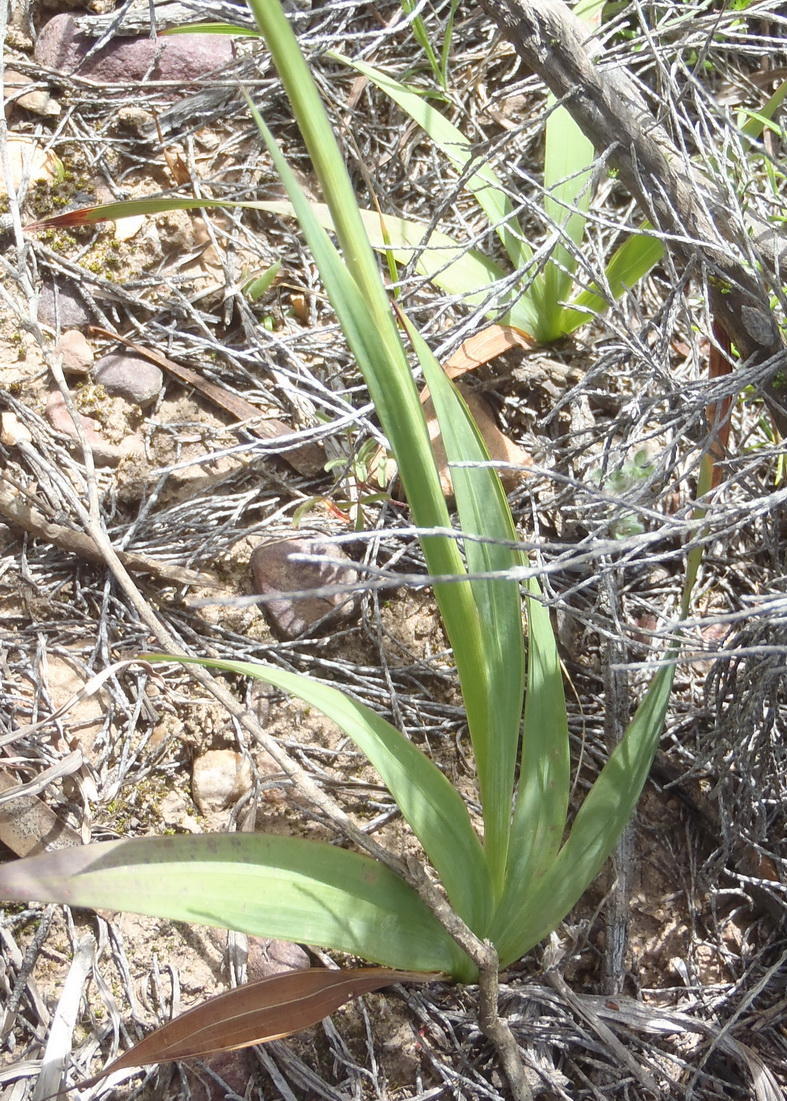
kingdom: Plantae
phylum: Tracheophyta
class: Liliopsida
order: Asparagales
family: Iridaceae
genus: Tritonia
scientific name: Tritonia gladiolaris
